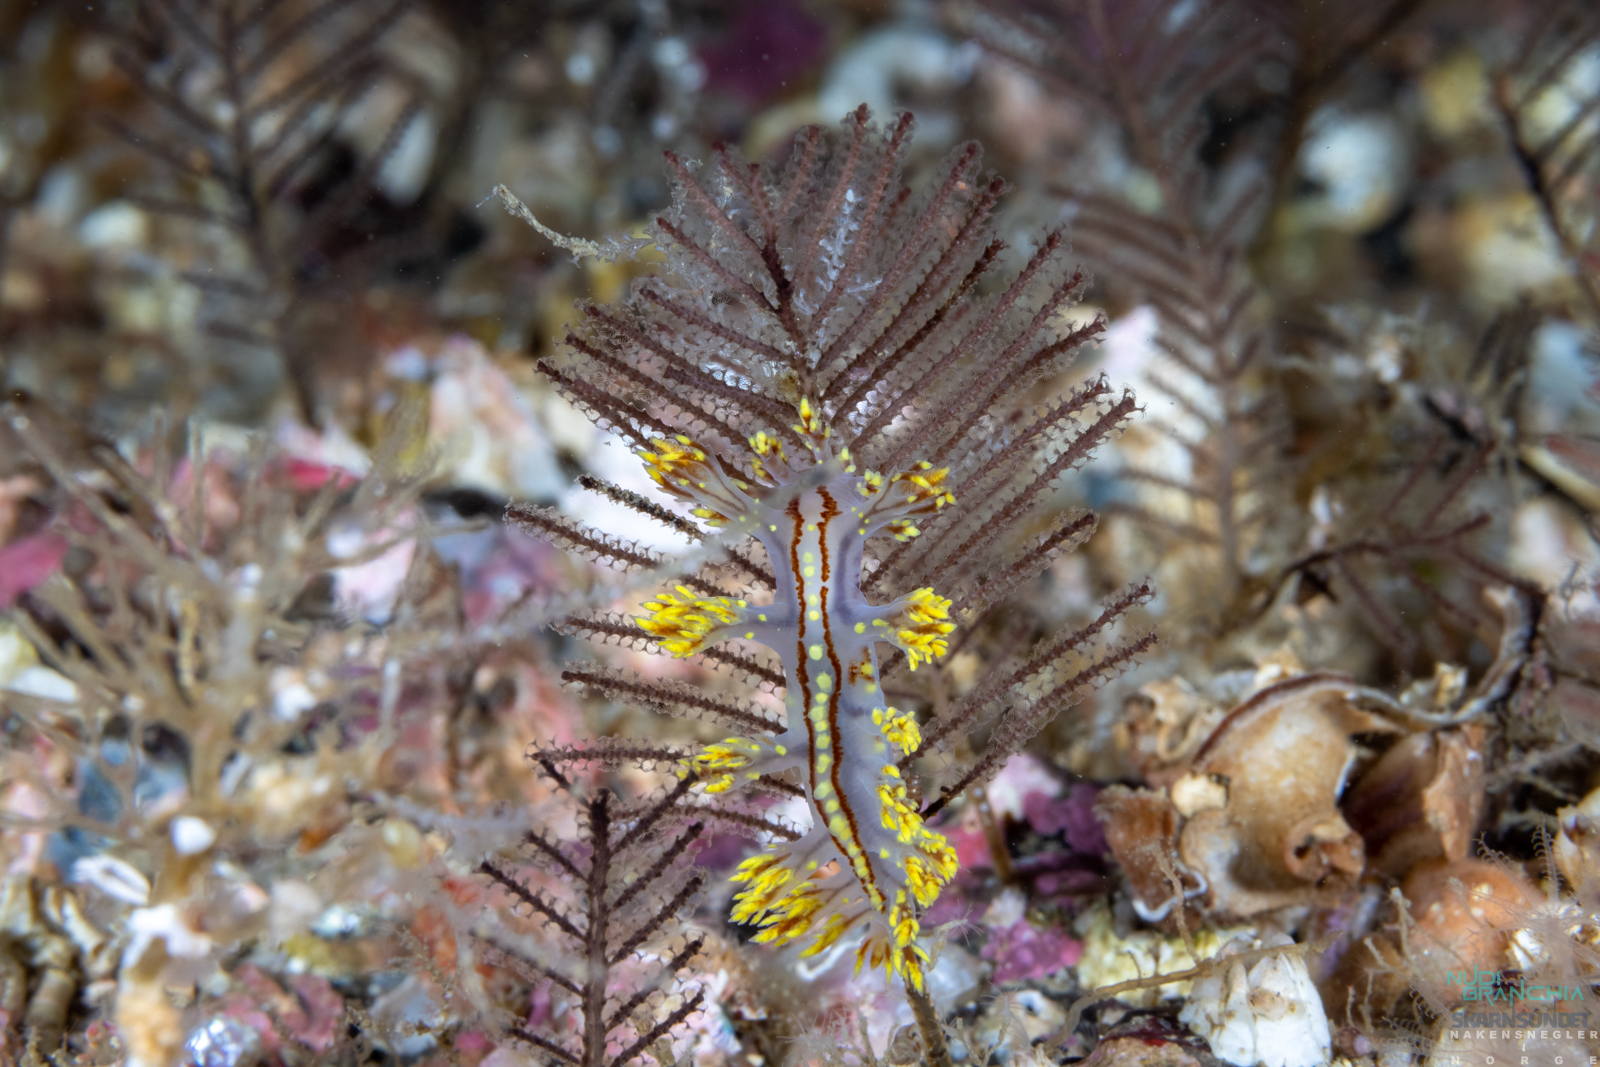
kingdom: Animalia
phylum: Mollusca
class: Gastropoda
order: Nudibranchia
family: Dendronotidae
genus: Dendronotus
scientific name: Dendronotus yrjargul
